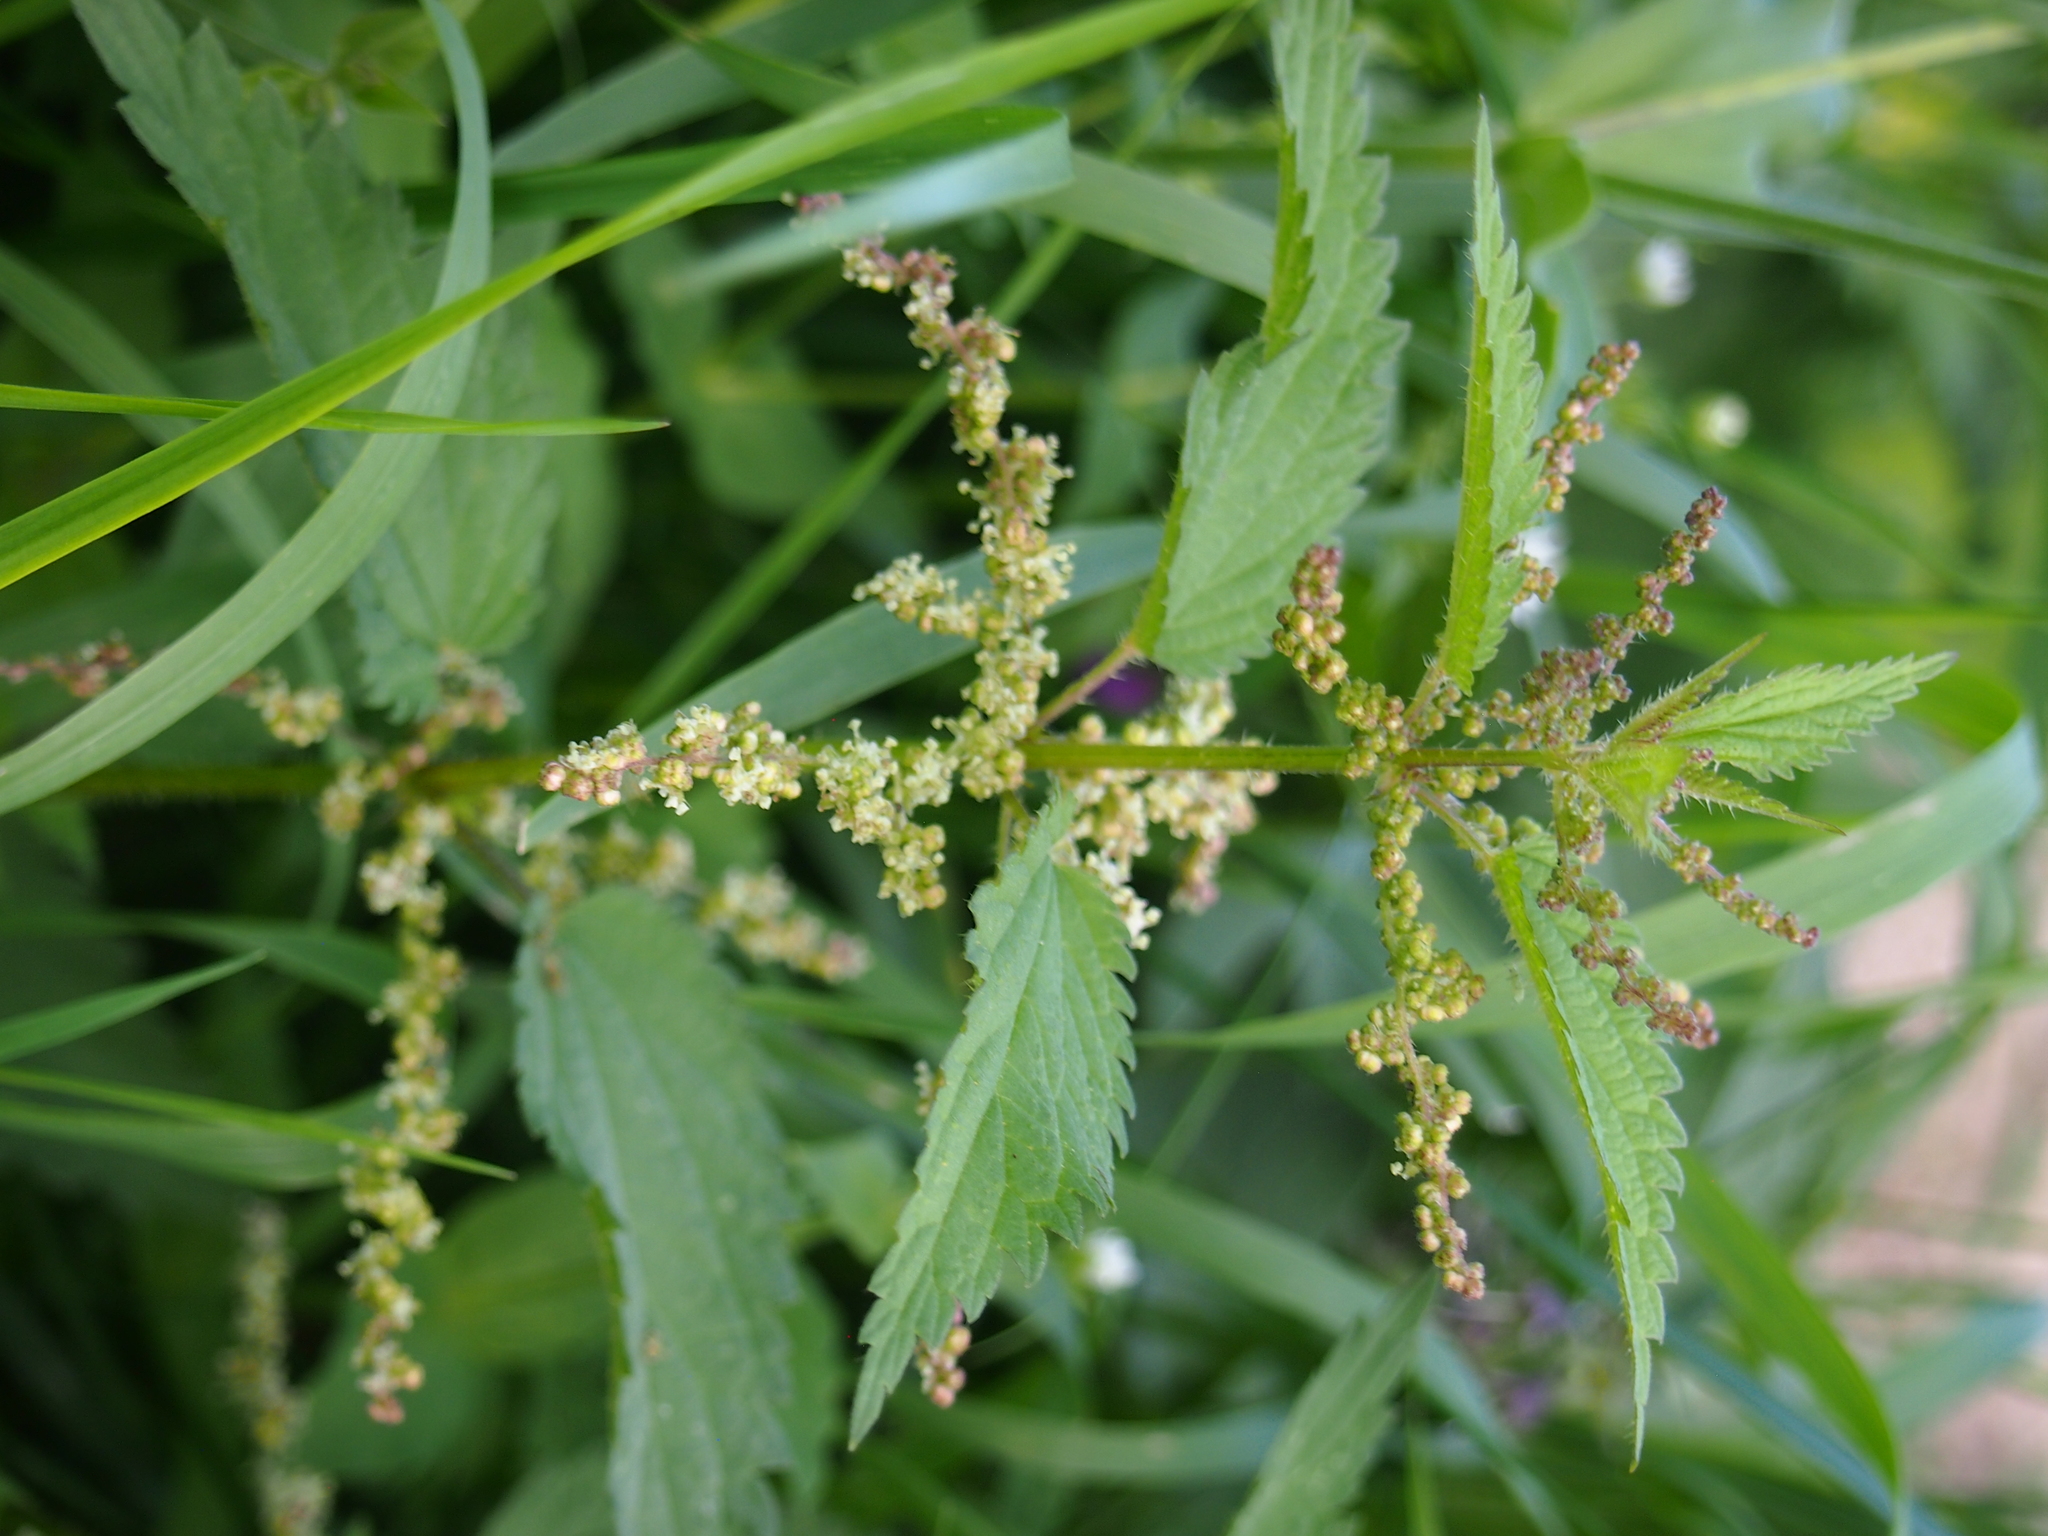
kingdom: Plantae
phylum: Tracheophyta
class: Magnoliopsida
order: Rosales
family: Urticaceae
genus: Urtica
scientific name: Urtica dioica
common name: Common nettle
